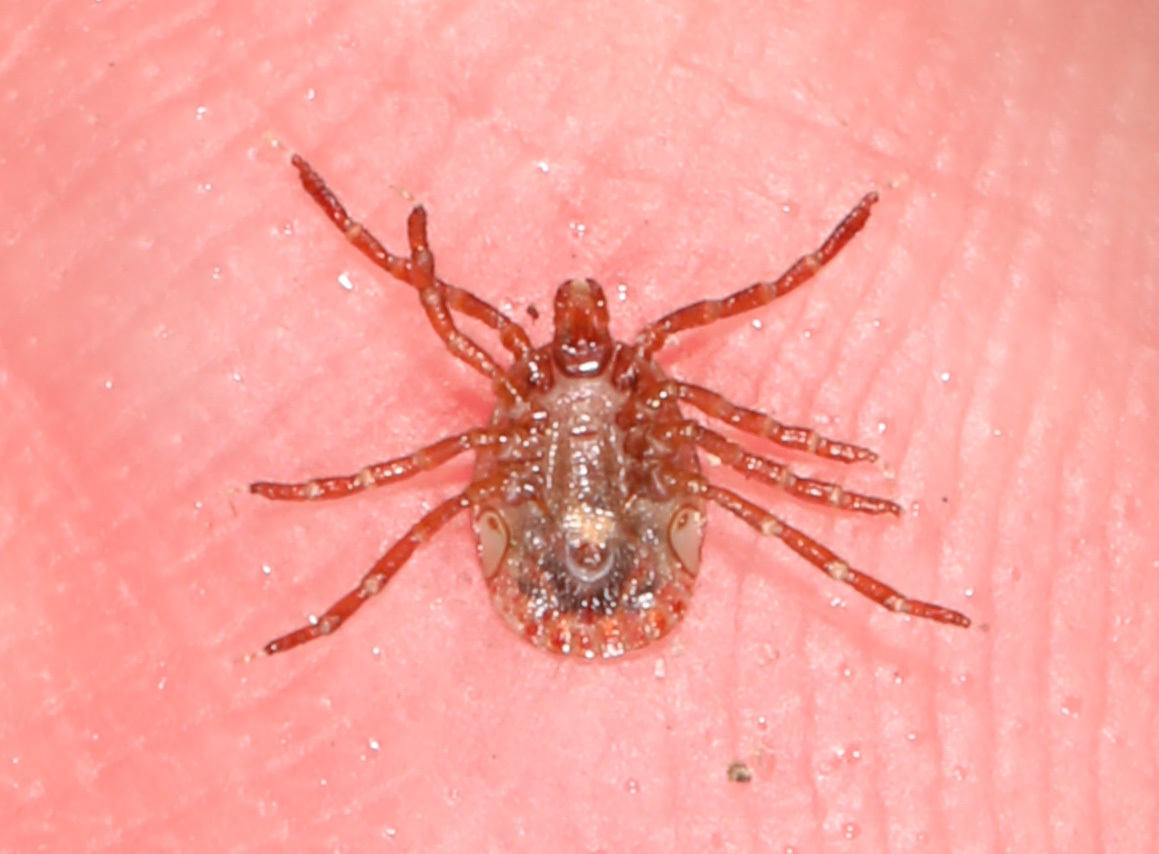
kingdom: Animalia
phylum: Arthropoda
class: Arachnida
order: Ixodida
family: Ixodidae
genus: Amblyomma
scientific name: Amblyomma americanum
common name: Lone star tick
